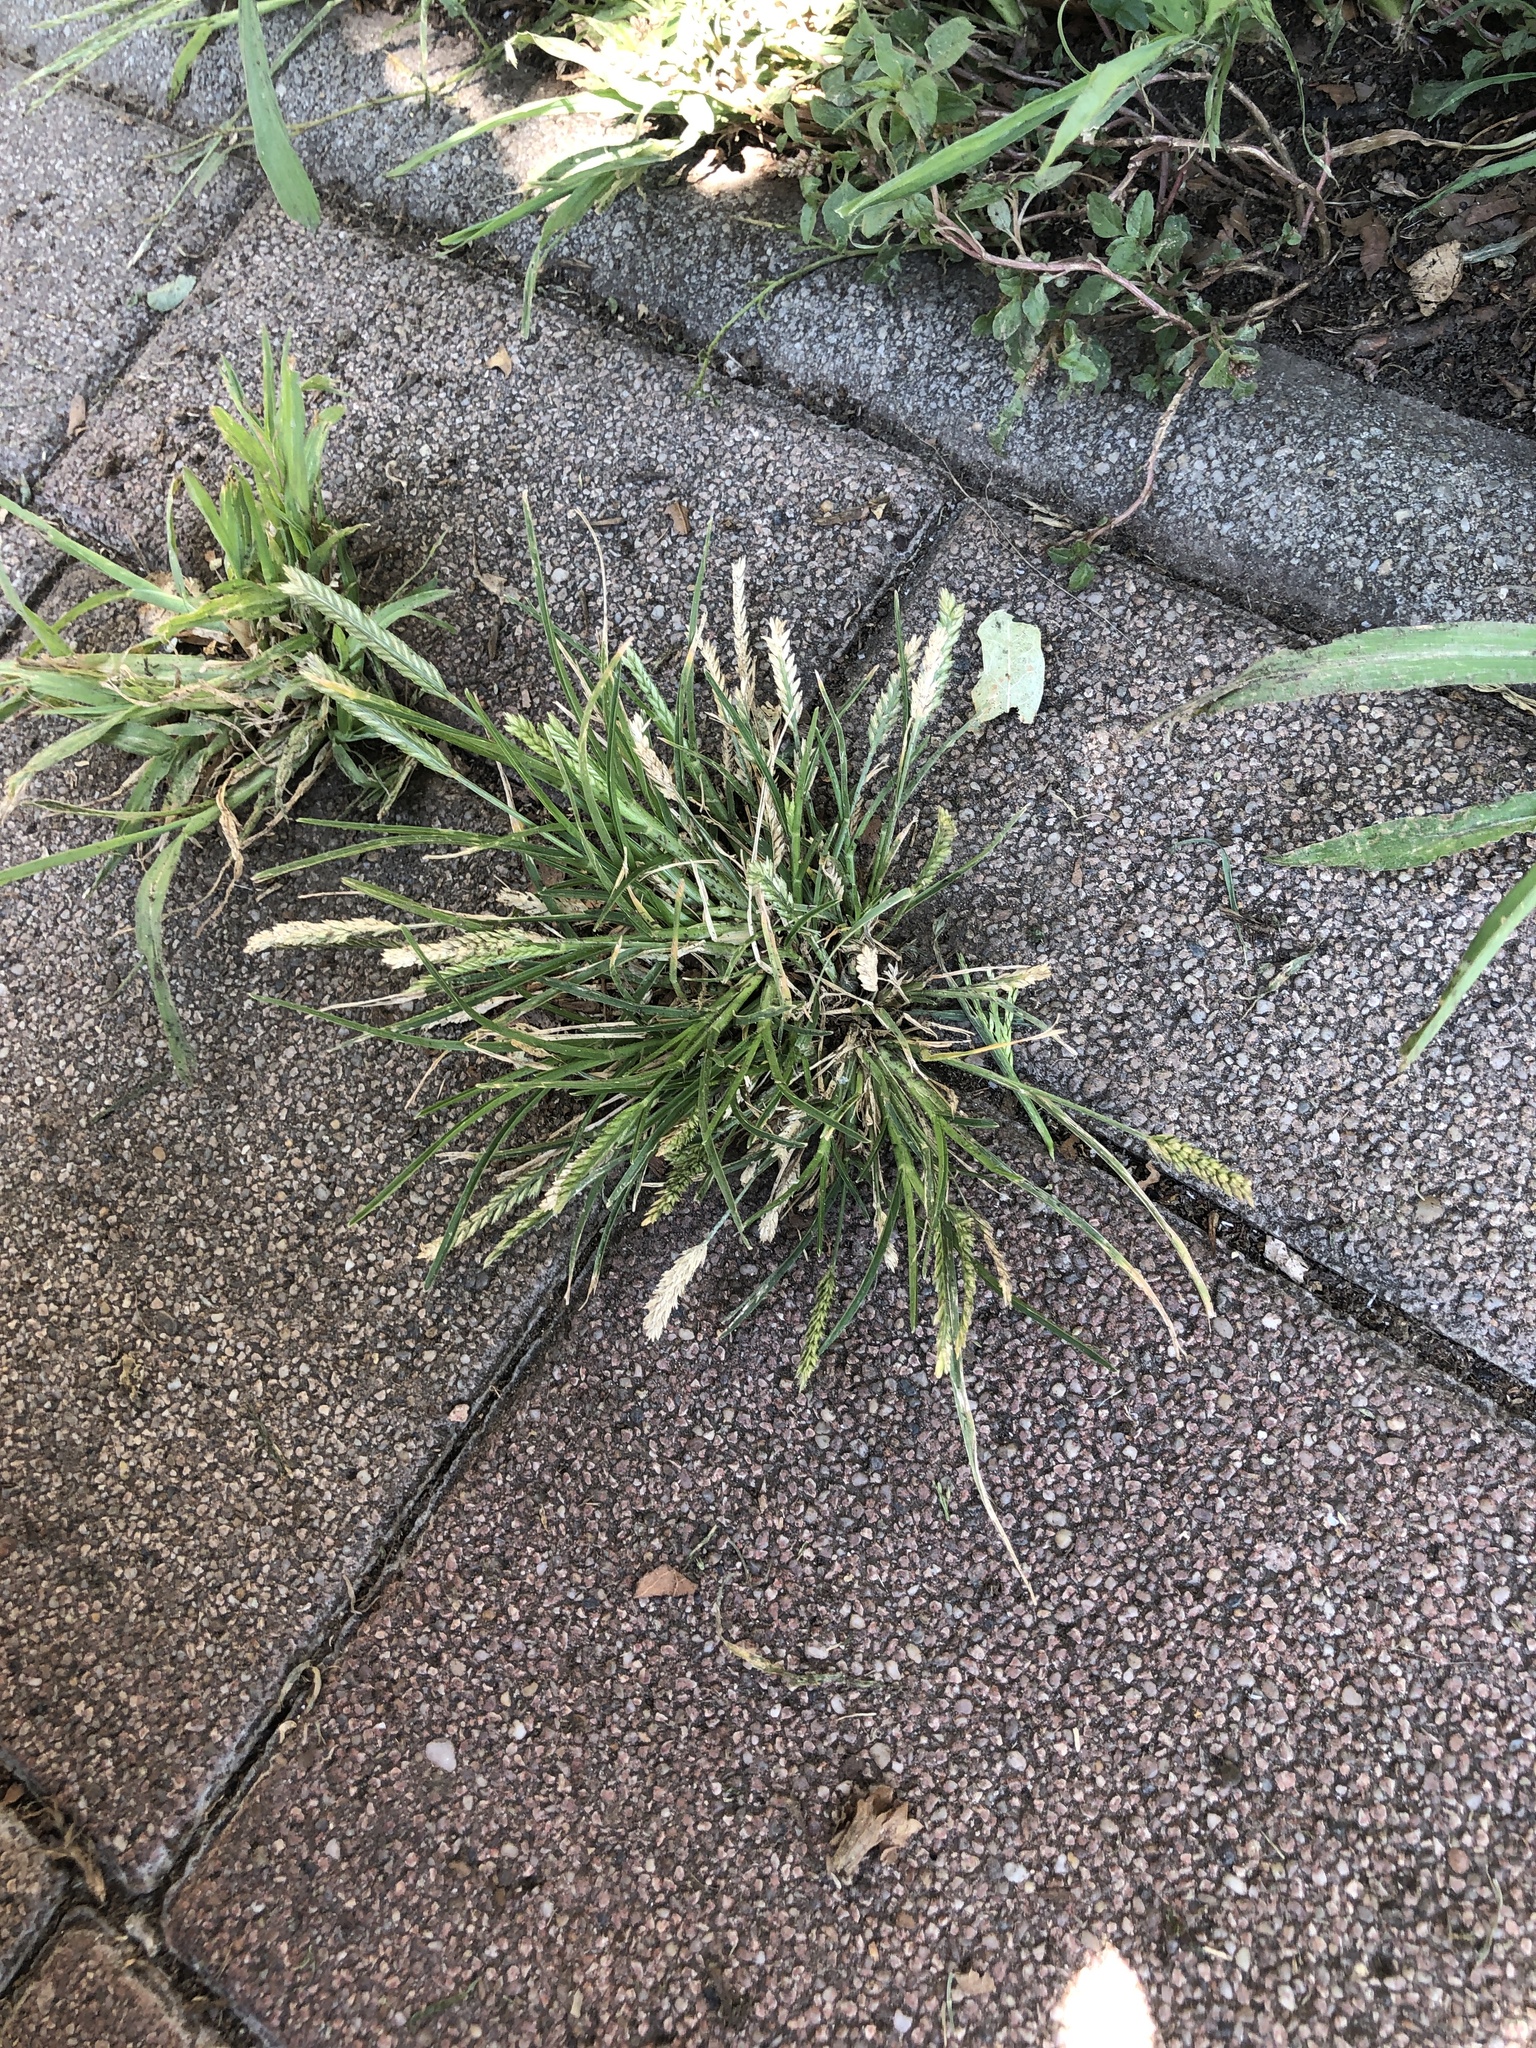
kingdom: Plantae
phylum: Tracheophyta
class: Liliopsida
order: Poales
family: Poaceae
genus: Eleusine
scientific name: Eleusine indica
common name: Yard-grass
